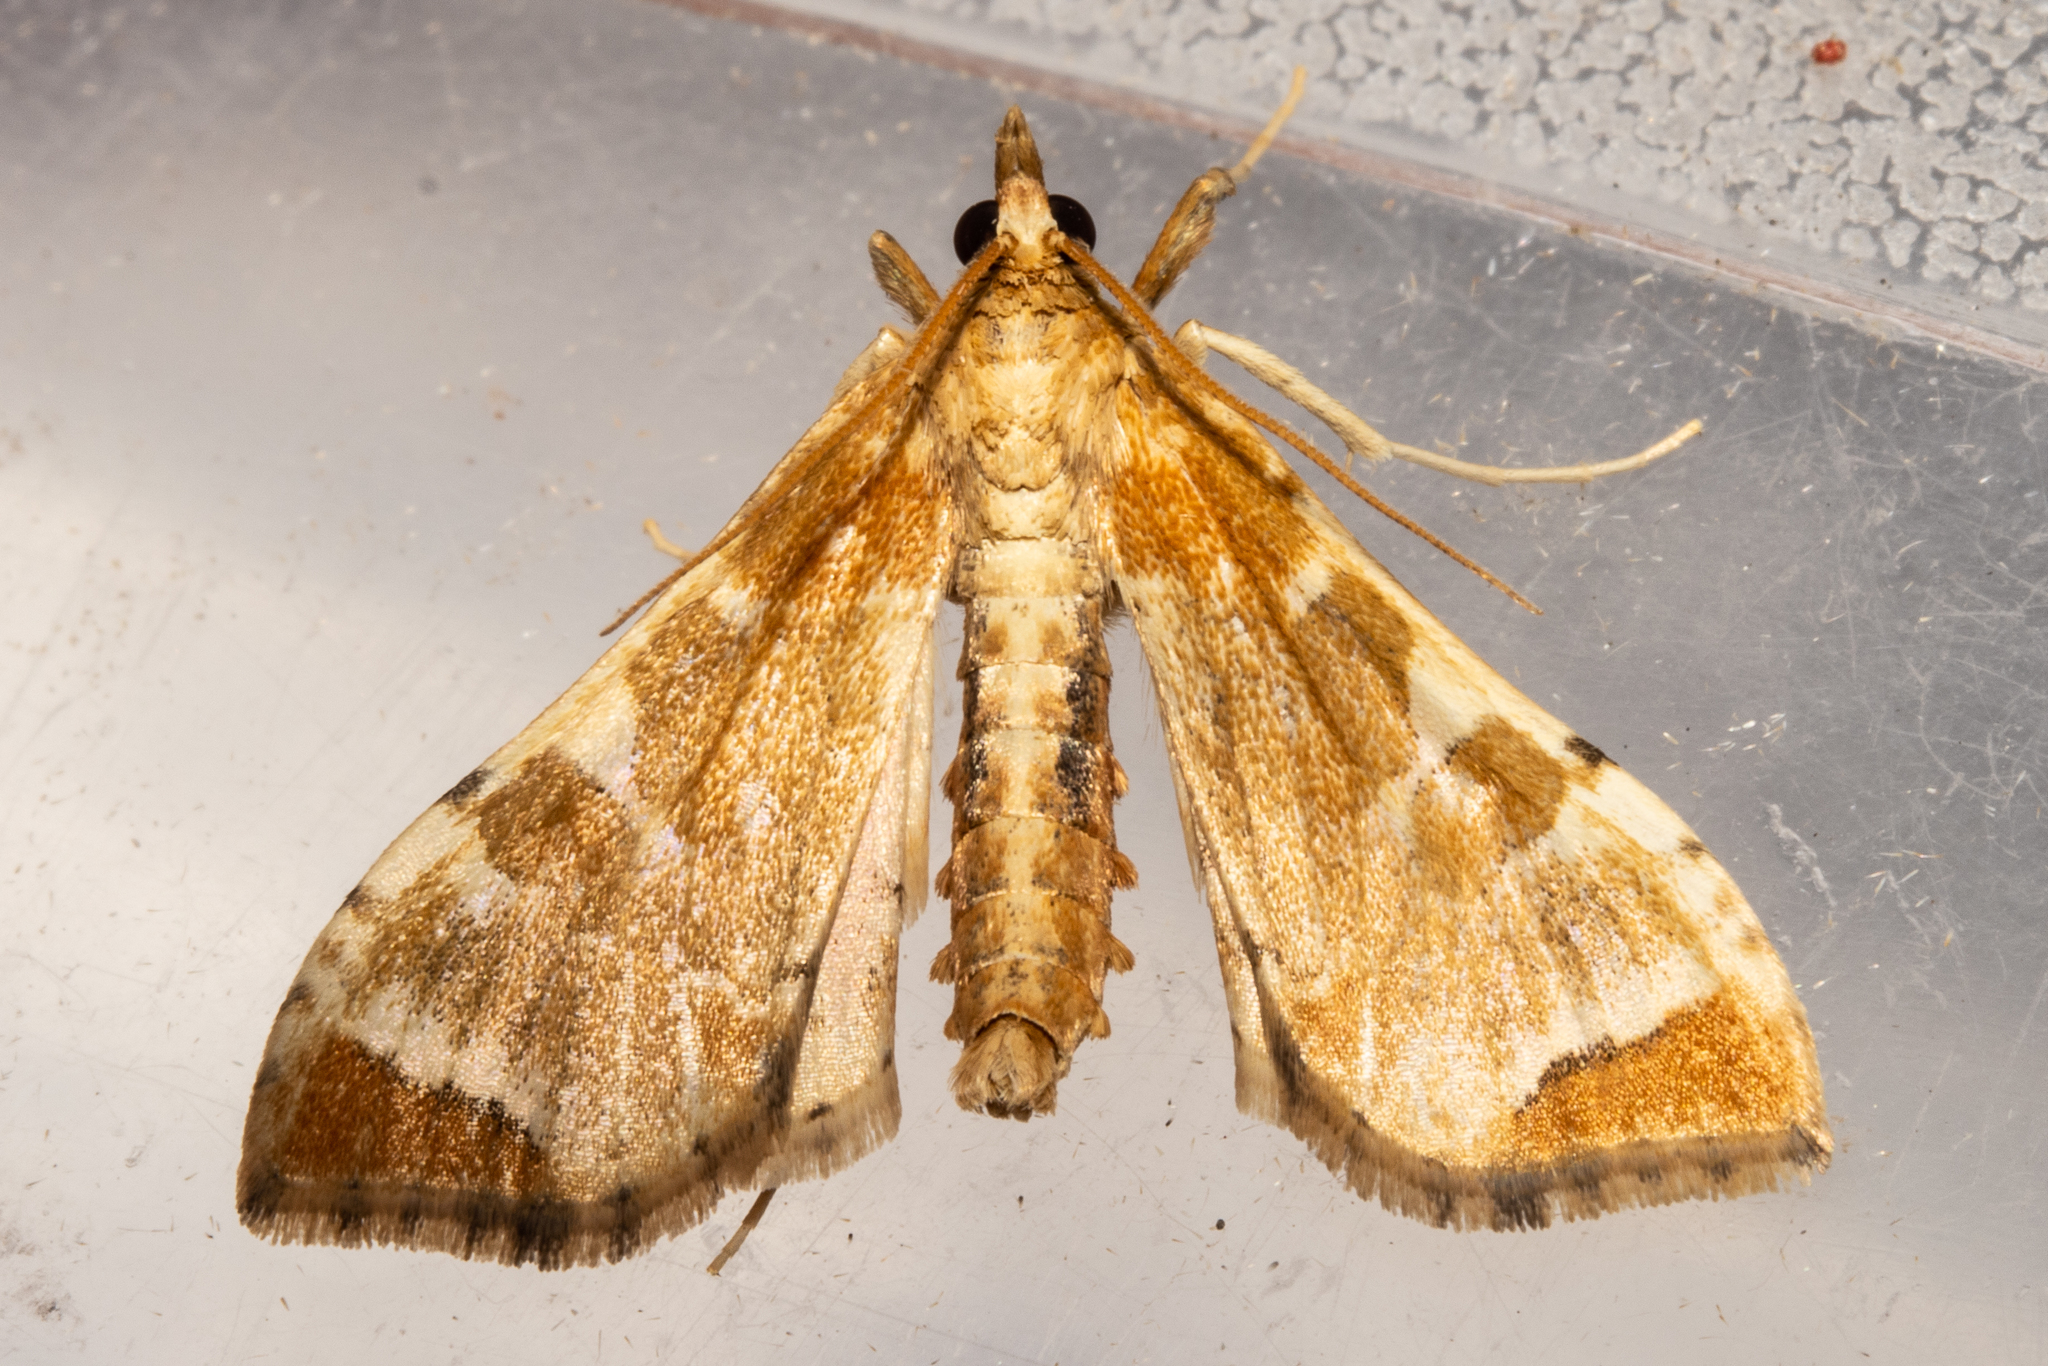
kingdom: Animalia
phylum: Arthropoda
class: Insecta
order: Lepidoptera
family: Crambidae
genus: Sceliodes
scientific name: Sceliodes cordalis
